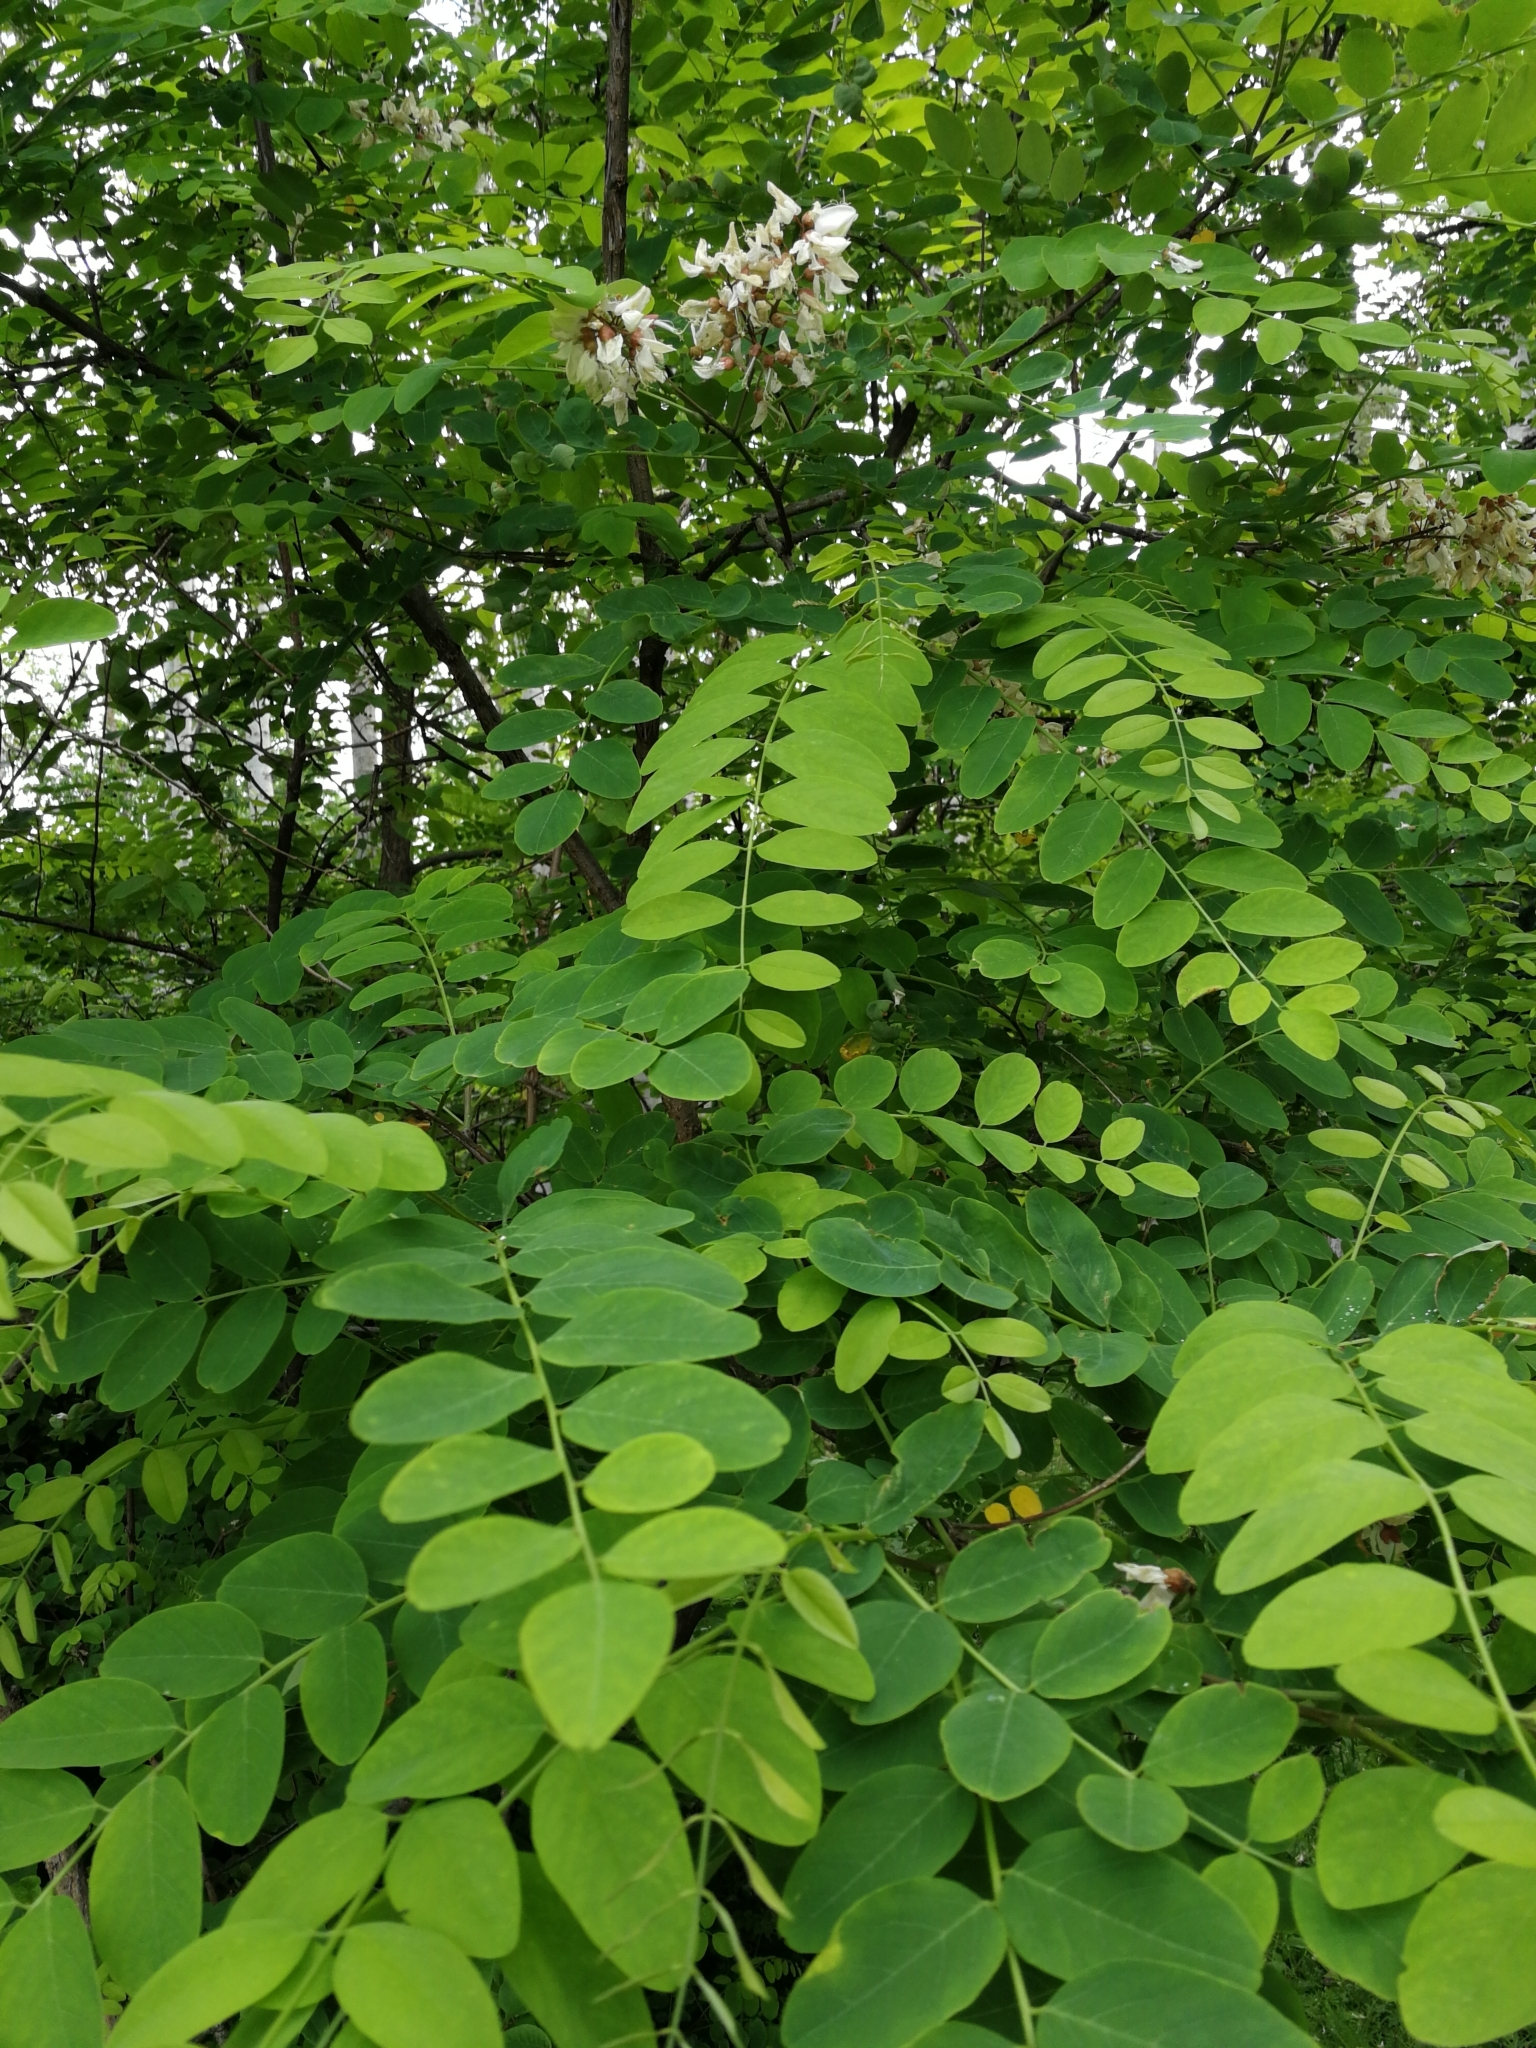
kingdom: Plantae
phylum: Tracheophyta
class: Magnoliopsida
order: Fabales
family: Fabaceae
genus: Robinia
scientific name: Robinia pseudoacacia
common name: Black locust
